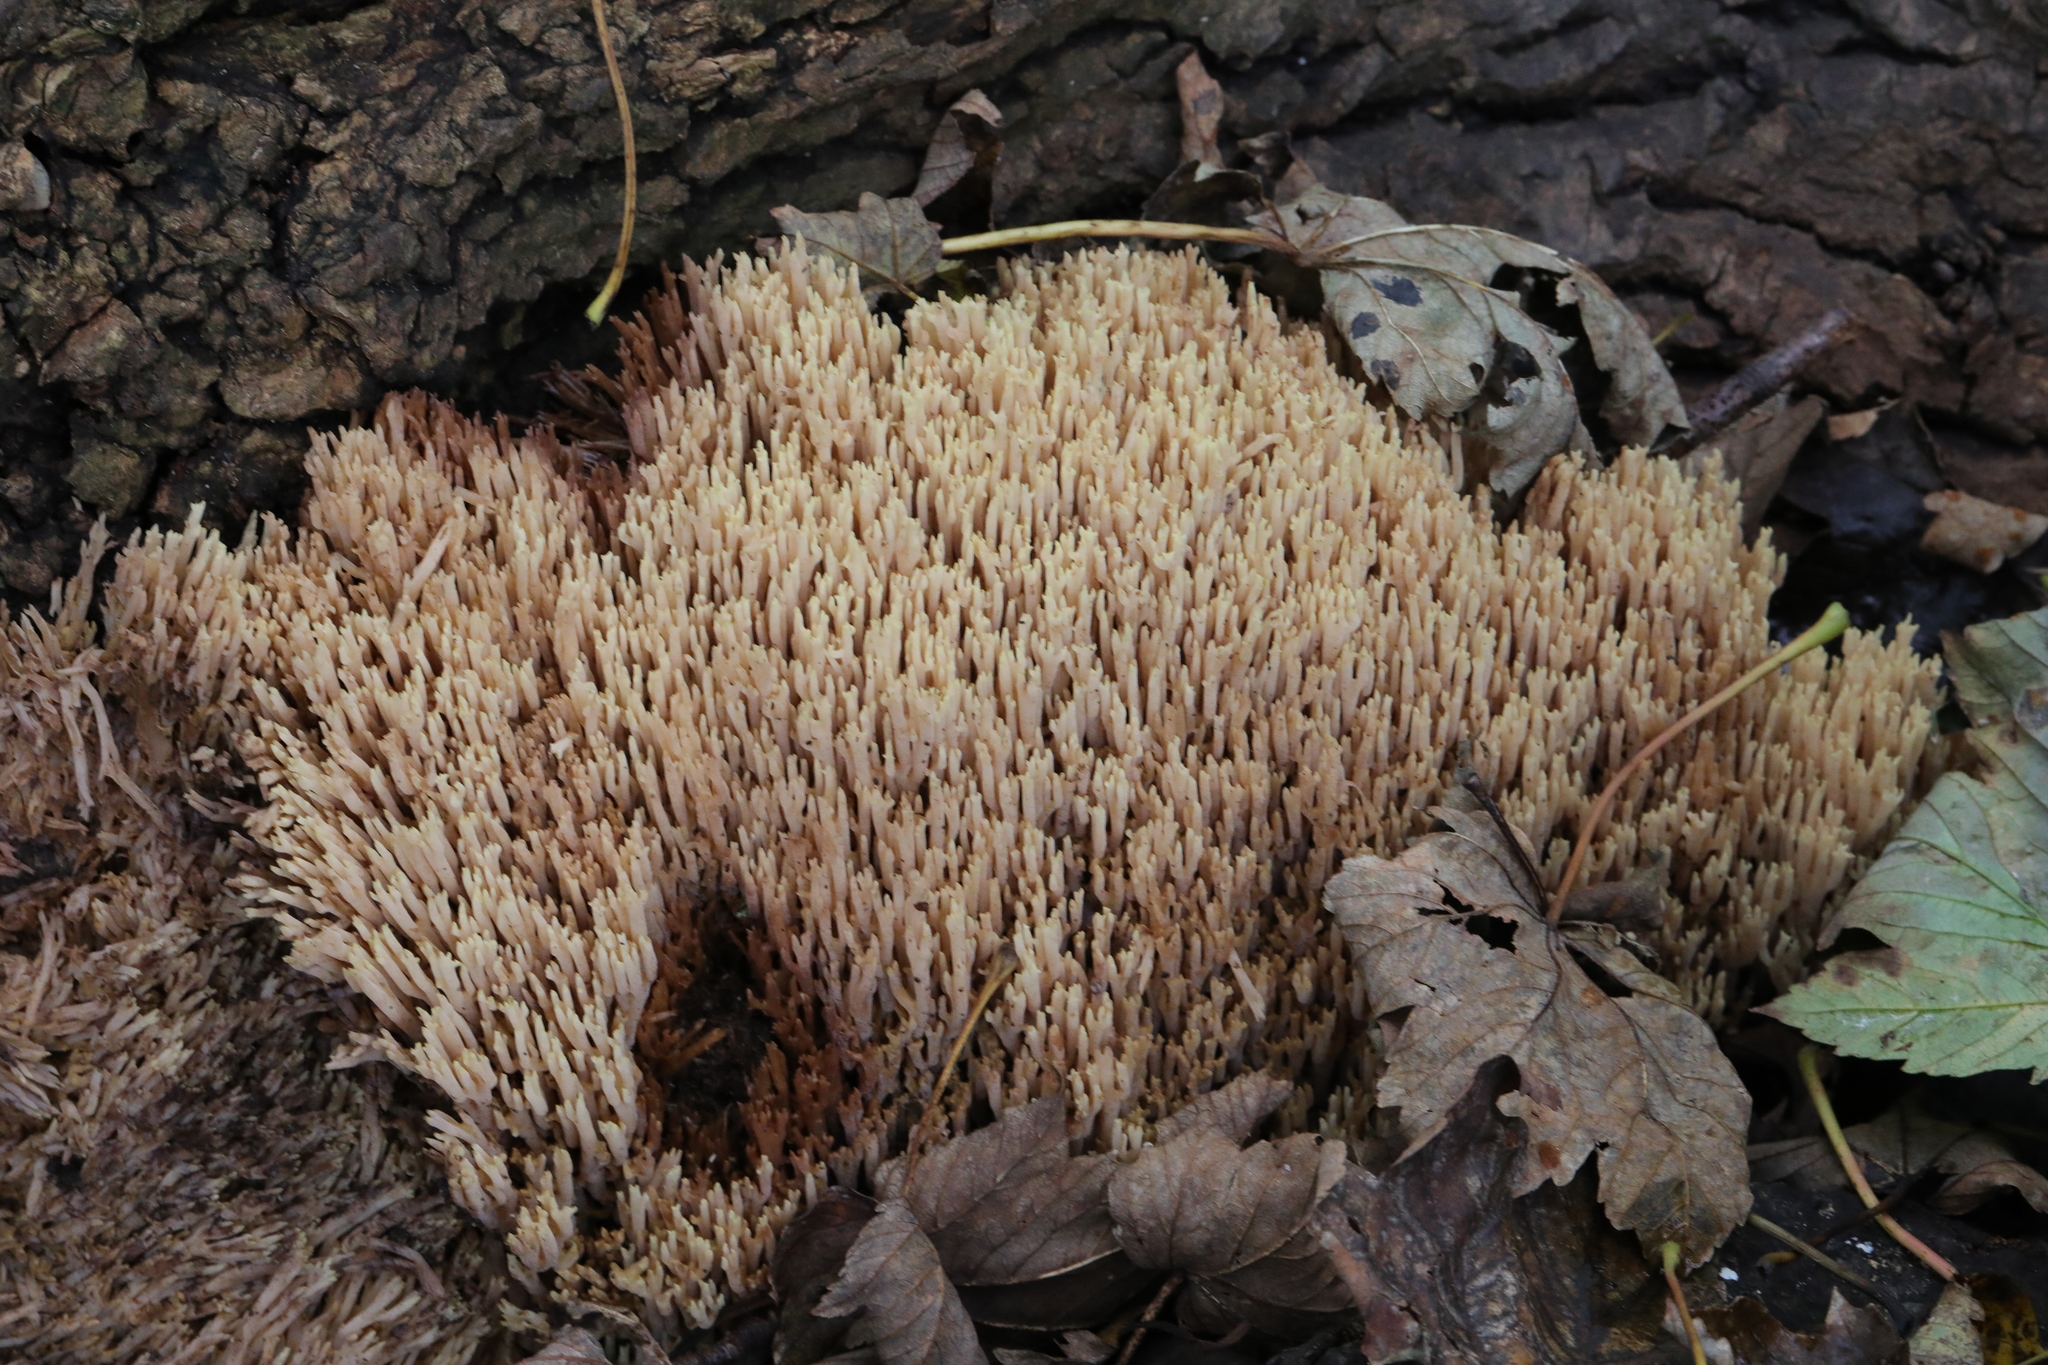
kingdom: Fungi
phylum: Basidiomycota
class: Agaricomycetes
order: Gomphales
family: Gomphaceae
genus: Ramaria
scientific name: Ramaria stricta
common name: Upright coral
